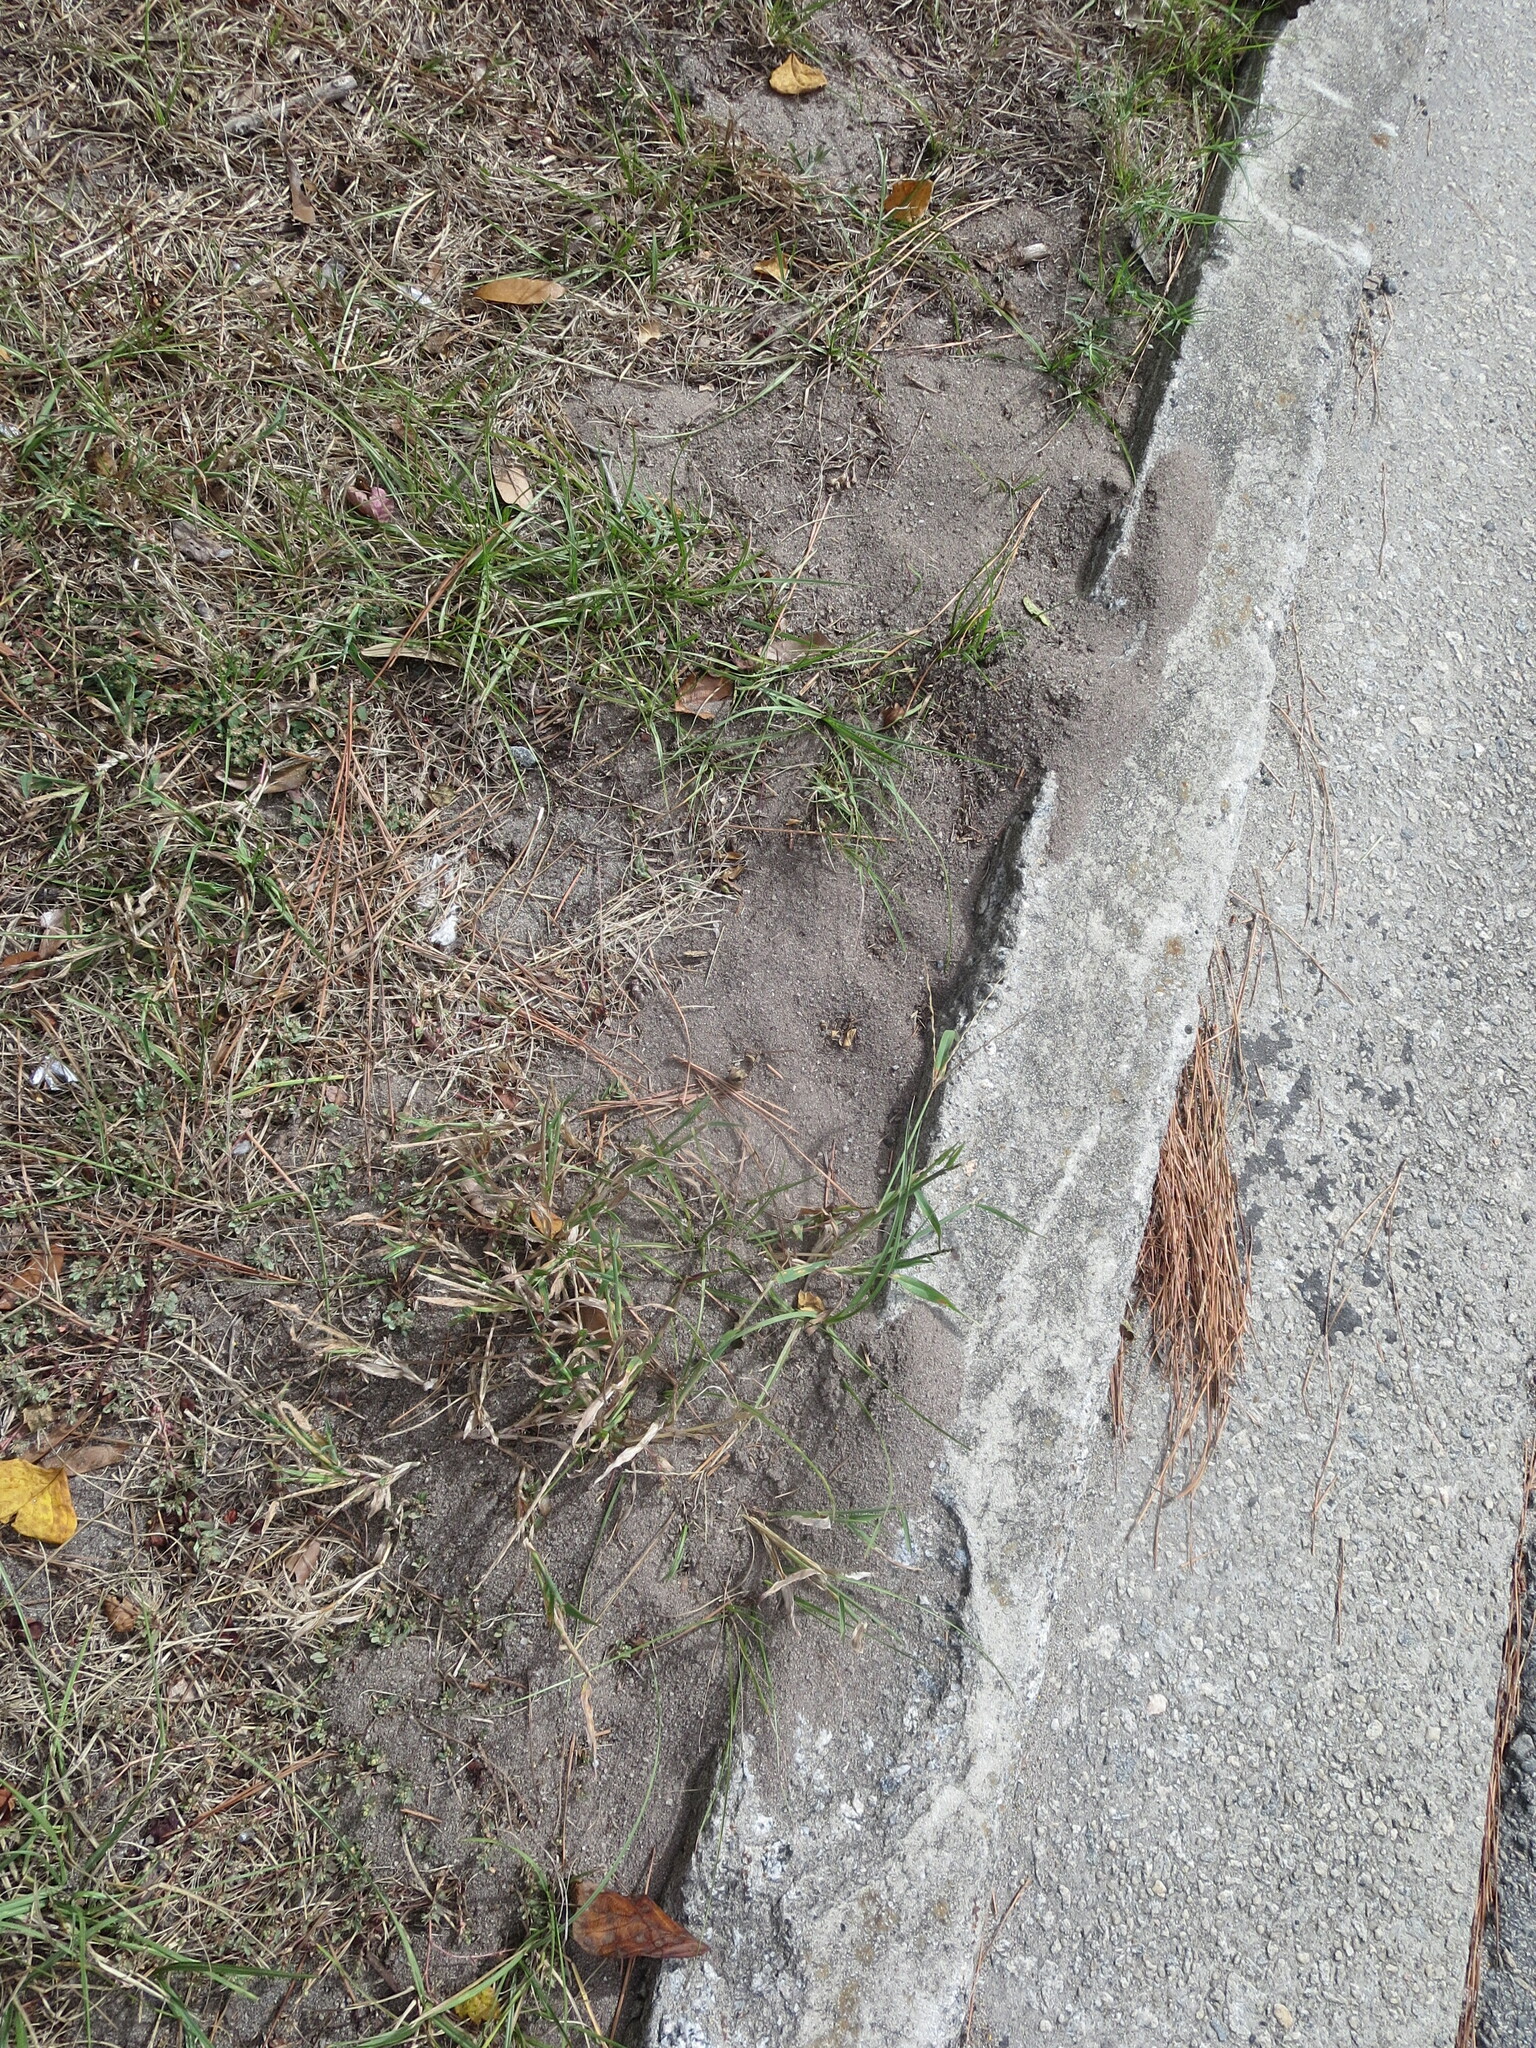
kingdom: Animalia
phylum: Arthropoda
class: Insecta
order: Hymenoptera
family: Formicidae
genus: Solenopsis
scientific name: Solenopsis invicta
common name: Red imported fire ant
